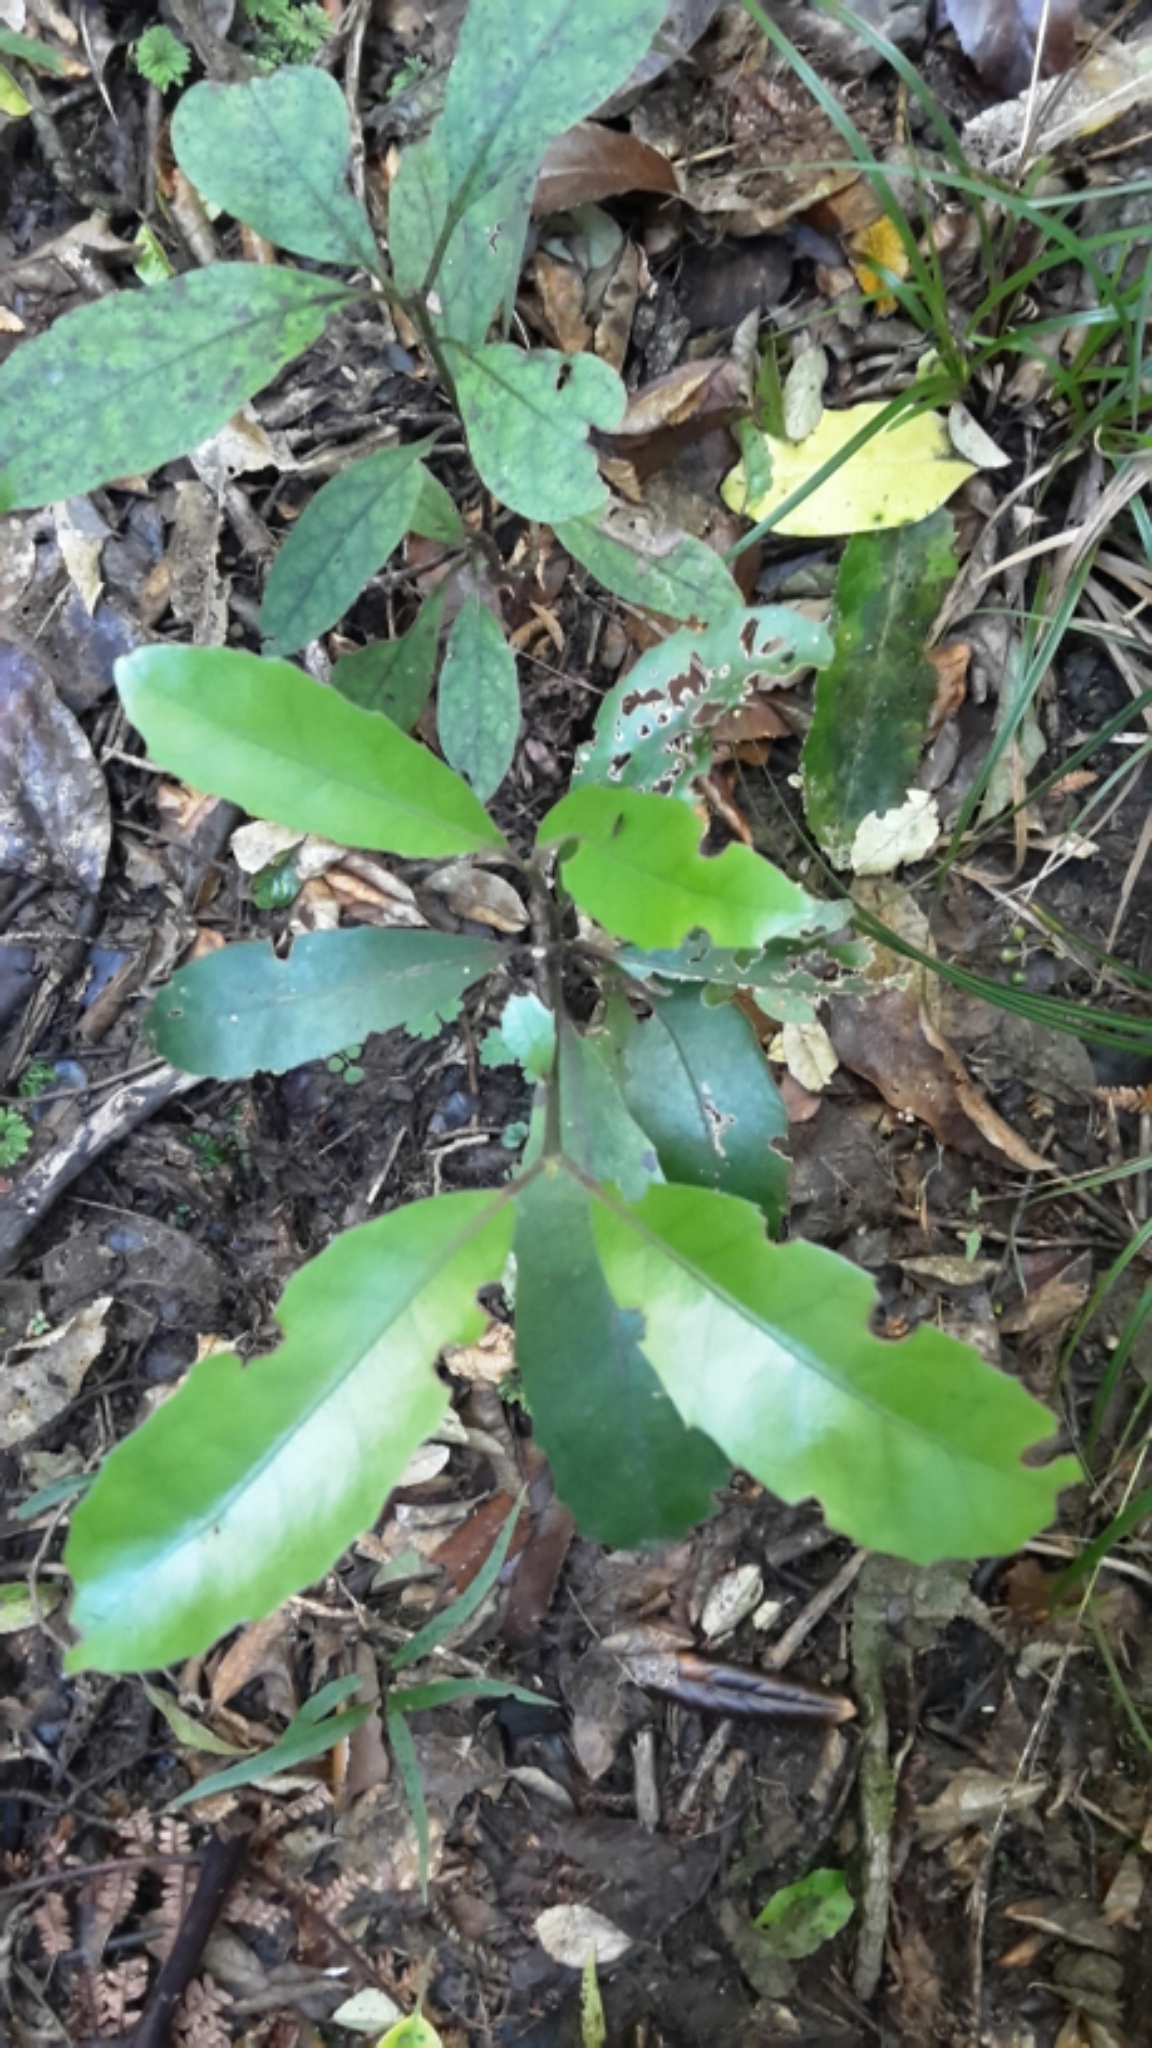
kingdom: Plantae
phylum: Tracheophyta
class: Magnoliopsida
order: Laurales
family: Monimiaceae
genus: Hedycarya
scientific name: Hedycarya arborea
